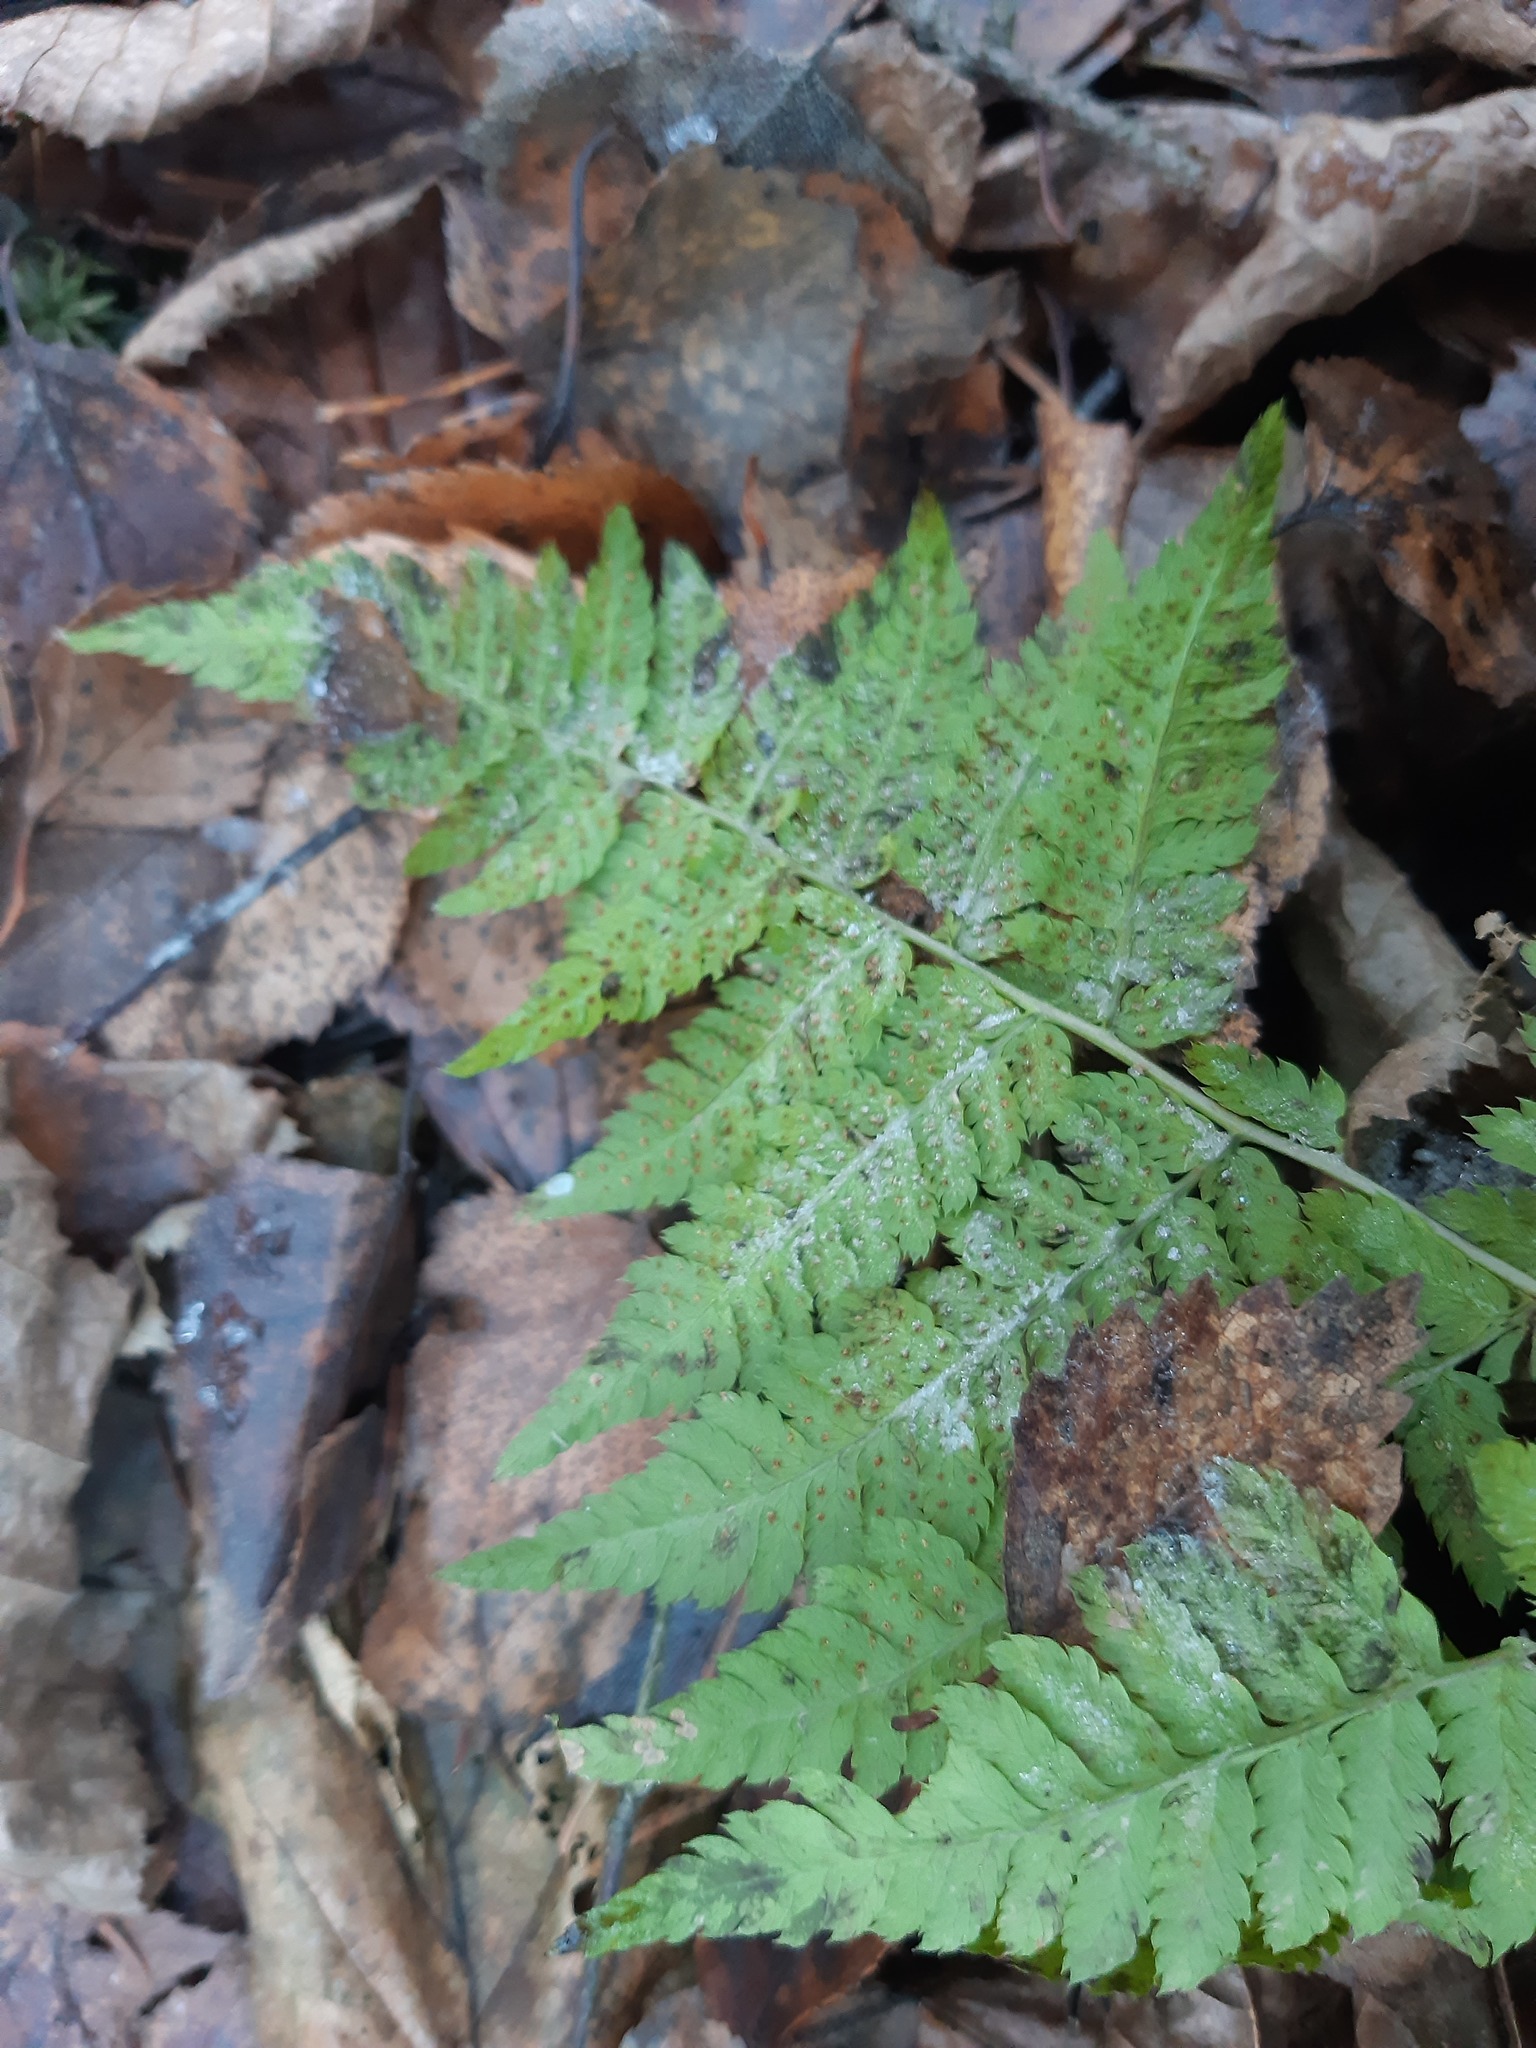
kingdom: Plantae
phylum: Tracheophyta
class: Polypodiopsida
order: Polypodiales
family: Dryopteridaceae
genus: Dryopteris
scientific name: Dryopteris carthusiana
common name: Narrow buckler-fern
